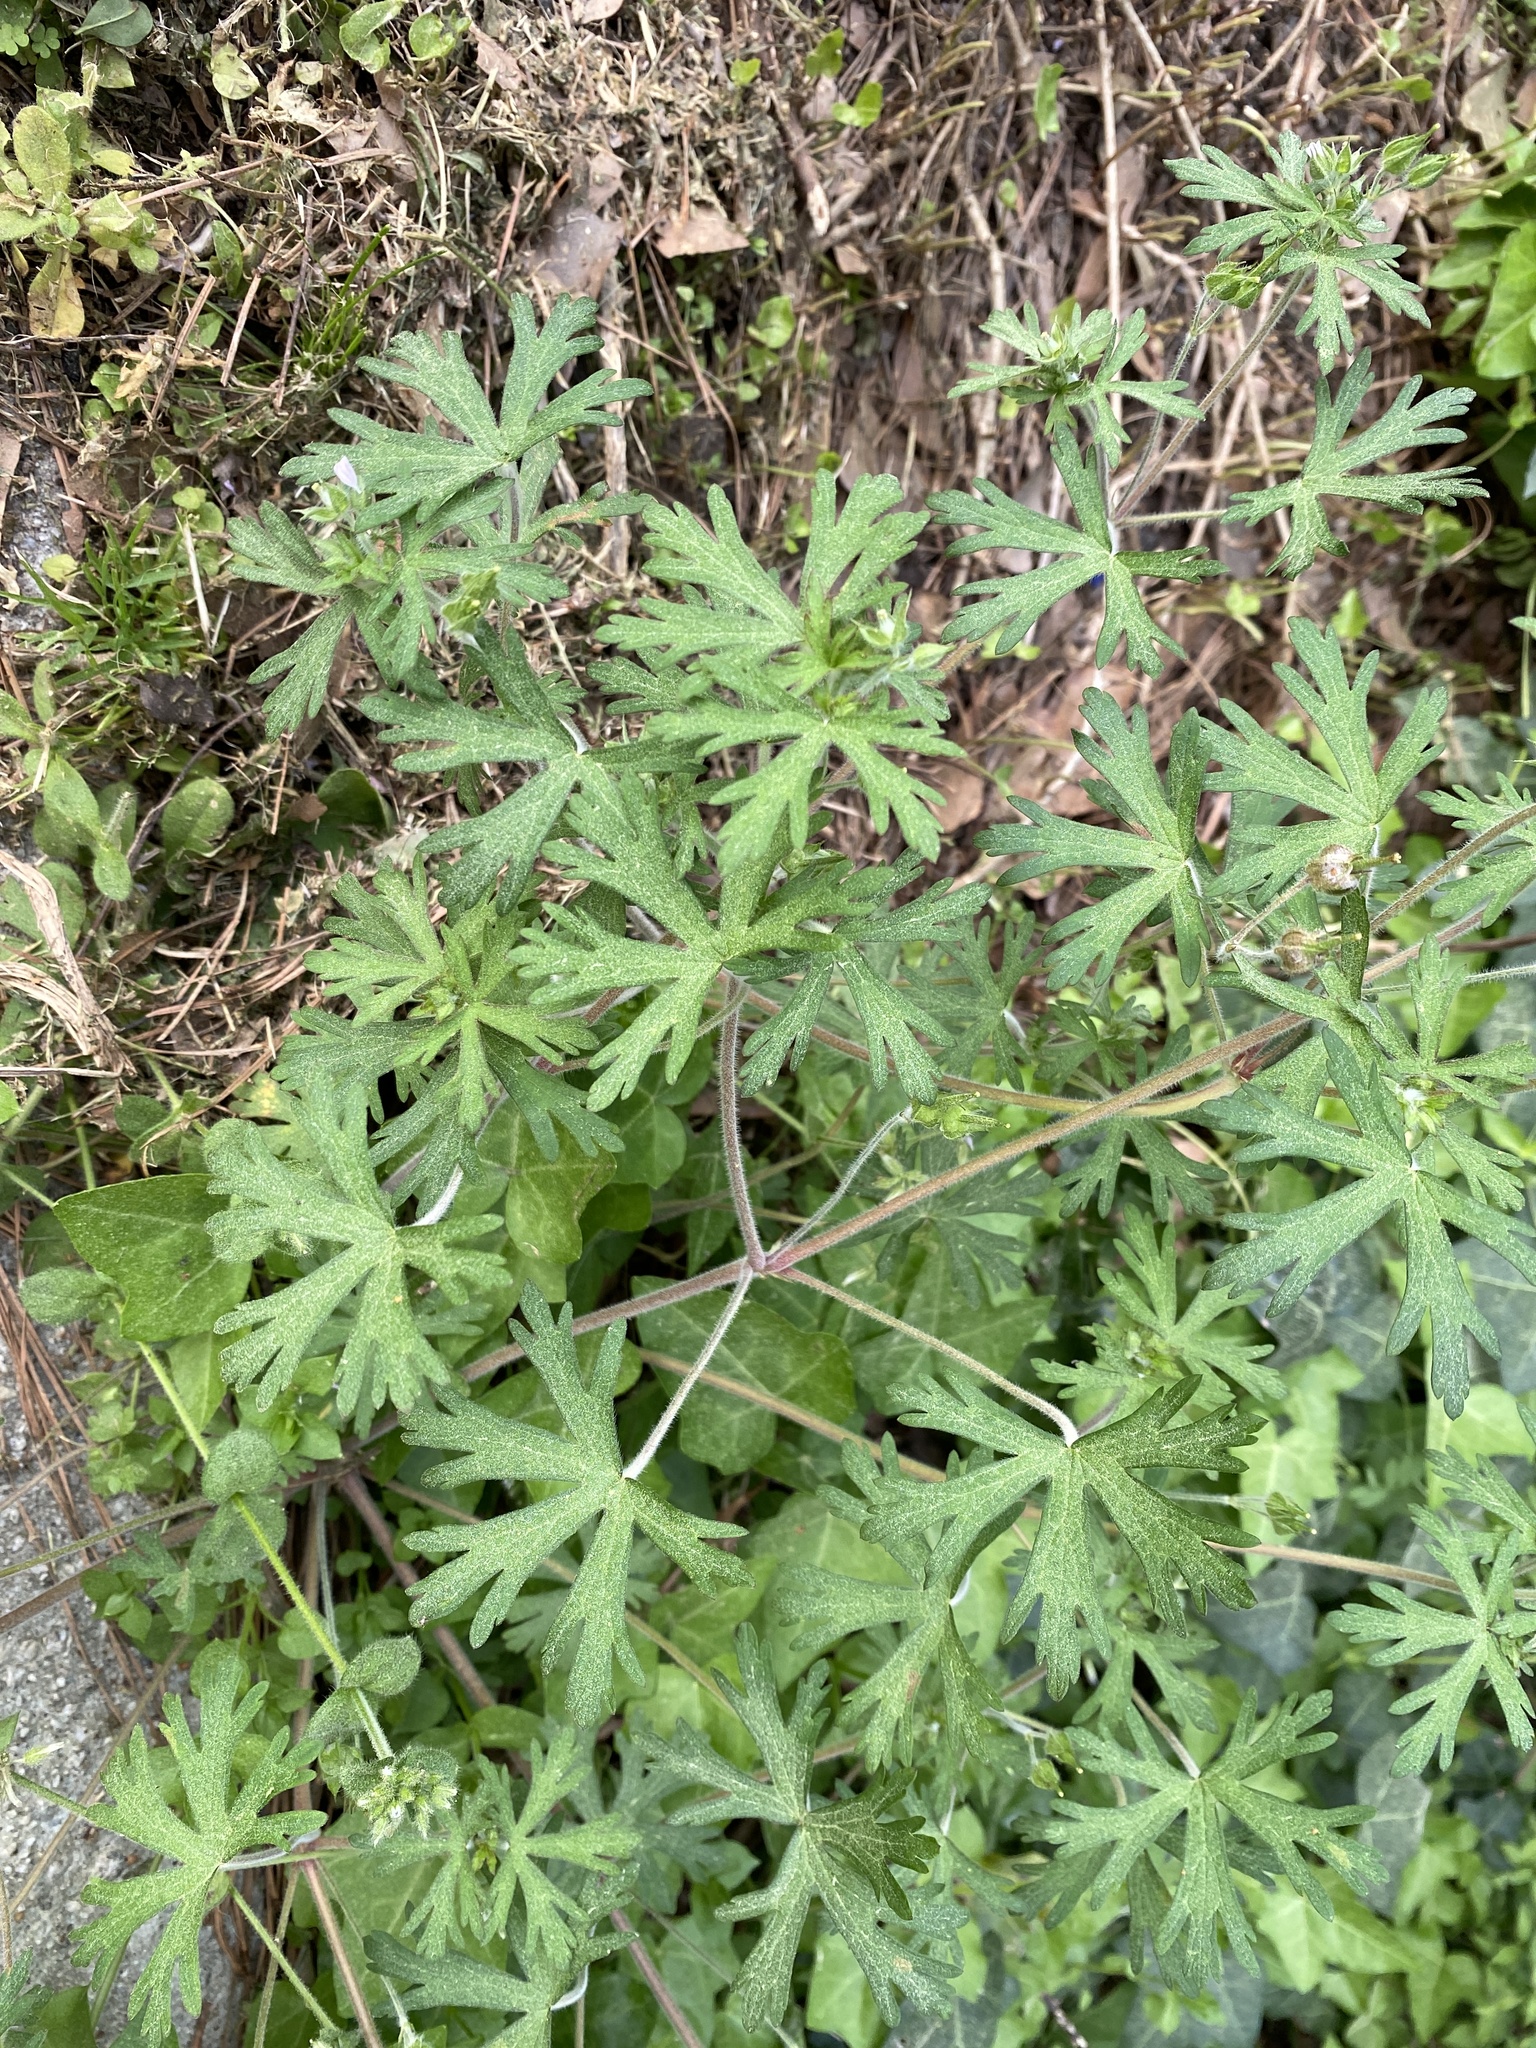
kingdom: Plantae
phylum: Tracheophyta
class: Magnoliopsida
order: Geraniales
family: Geraniaceae
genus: Geranium
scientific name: Geranium carolinianum
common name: Carolina crane's-bill
